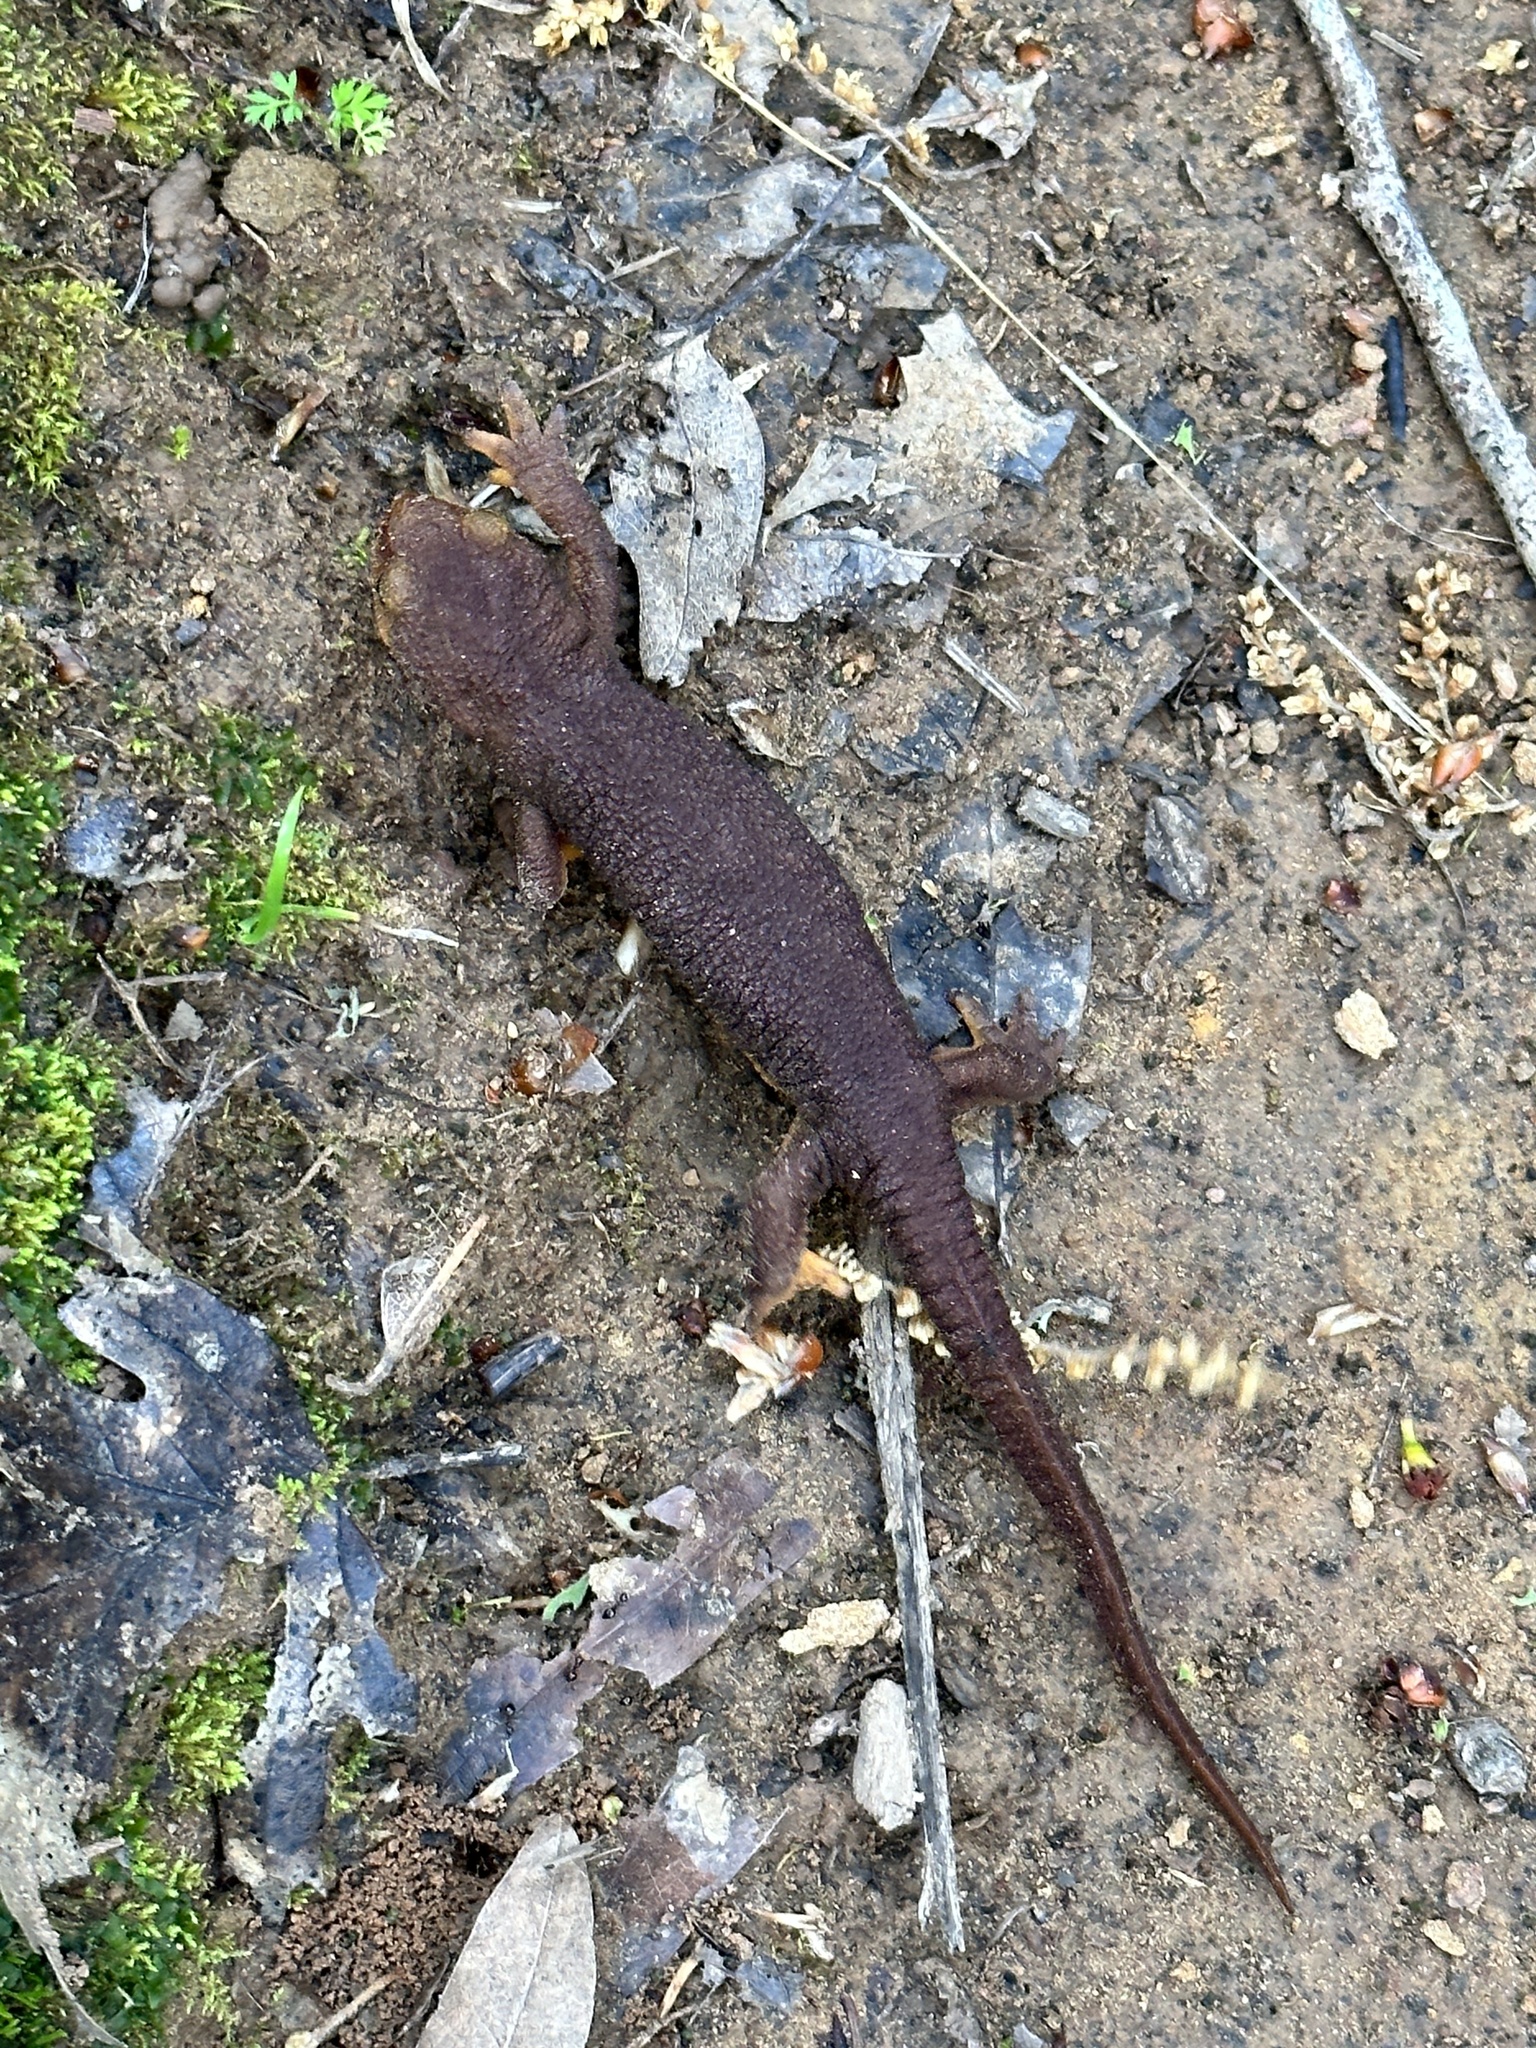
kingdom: Animalia
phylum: Chordata
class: Amphibia
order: Caudata
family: Salamandridae
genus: Taricha
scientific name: Taricha torosa
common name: California newt
